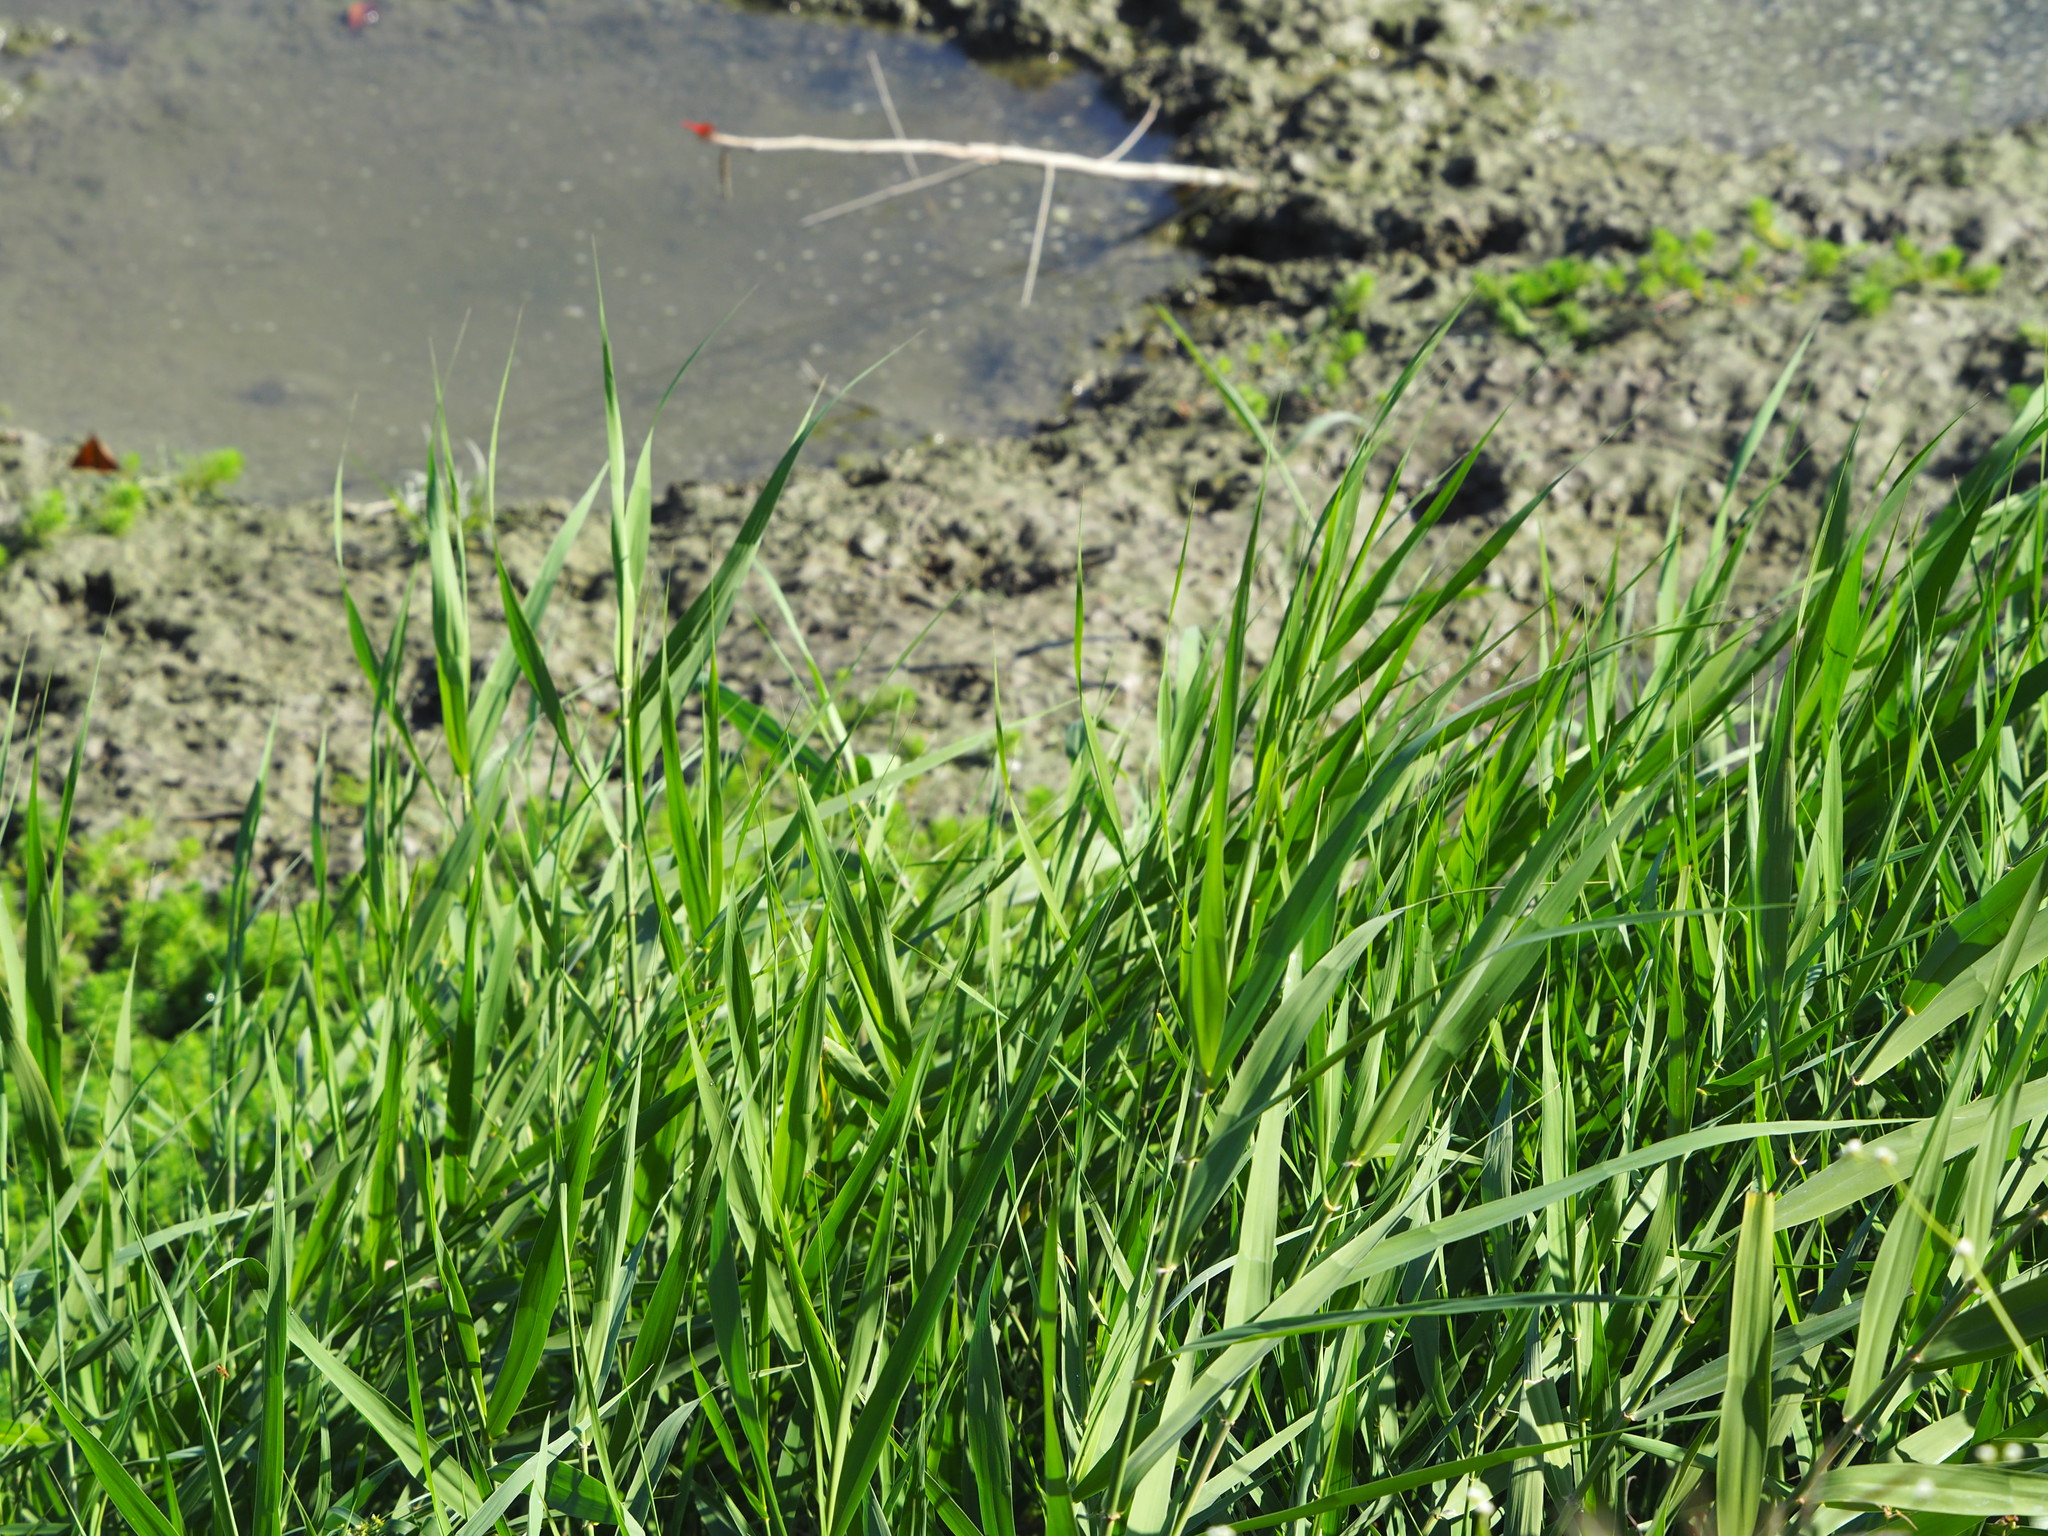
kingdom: Plantae
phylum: Tracheophyta
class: Liliopsida
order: Poales
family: Poaceae
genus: Megathyrsus
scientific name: Megathyrsus maximus
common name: Guineagrass
